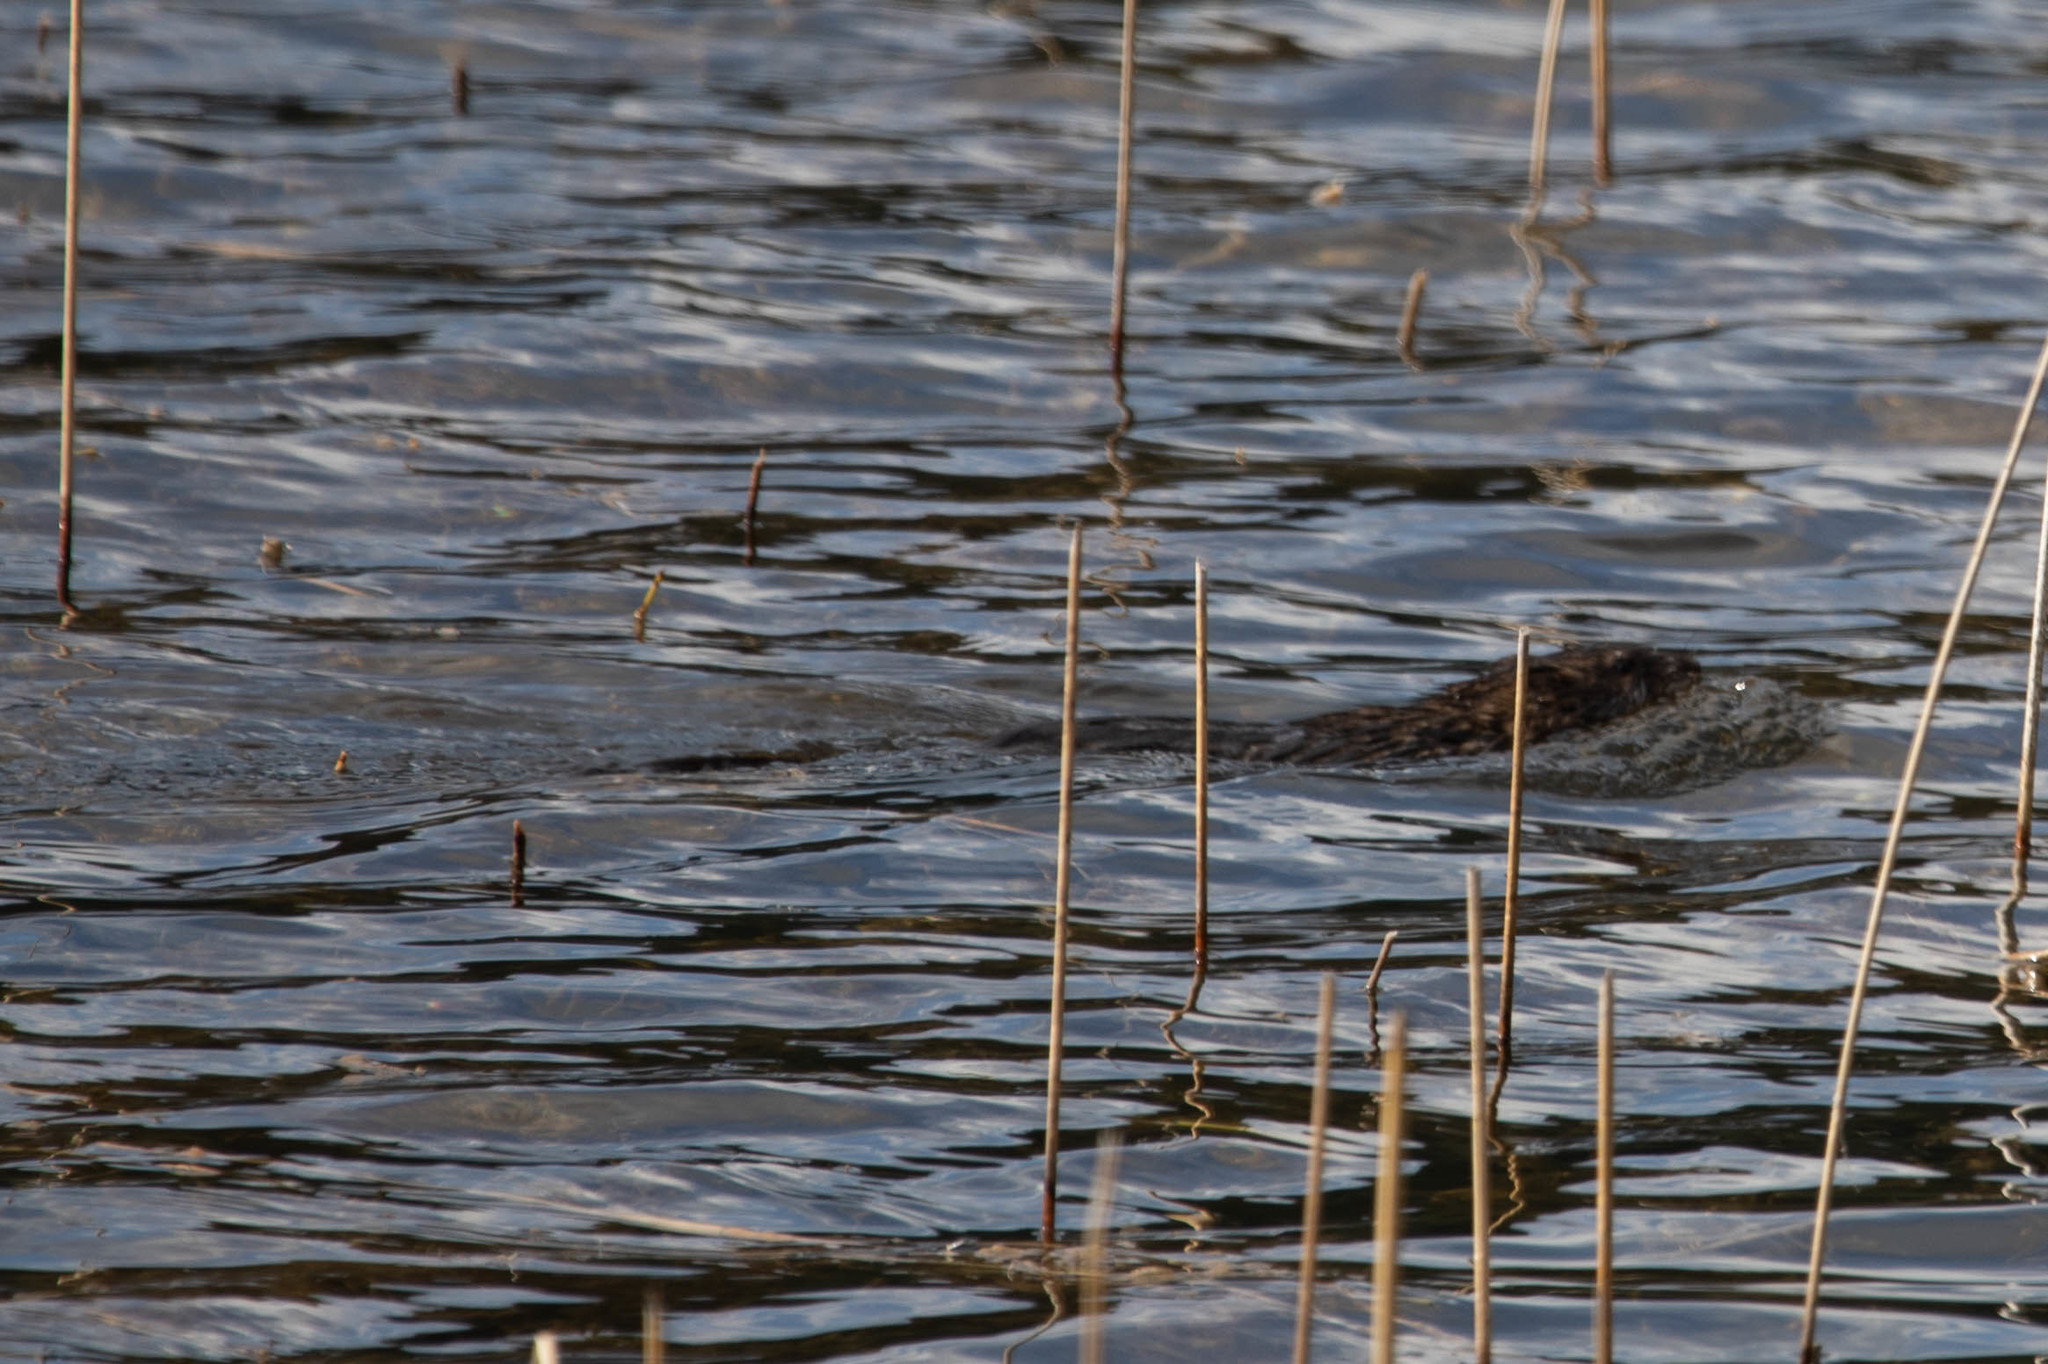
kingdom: Animalia
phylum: Chordata
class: Mammalia
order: Rodentia
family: Cricetidae
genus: Ondatra
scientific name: Ondatra zibethicus
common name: Muskrat
